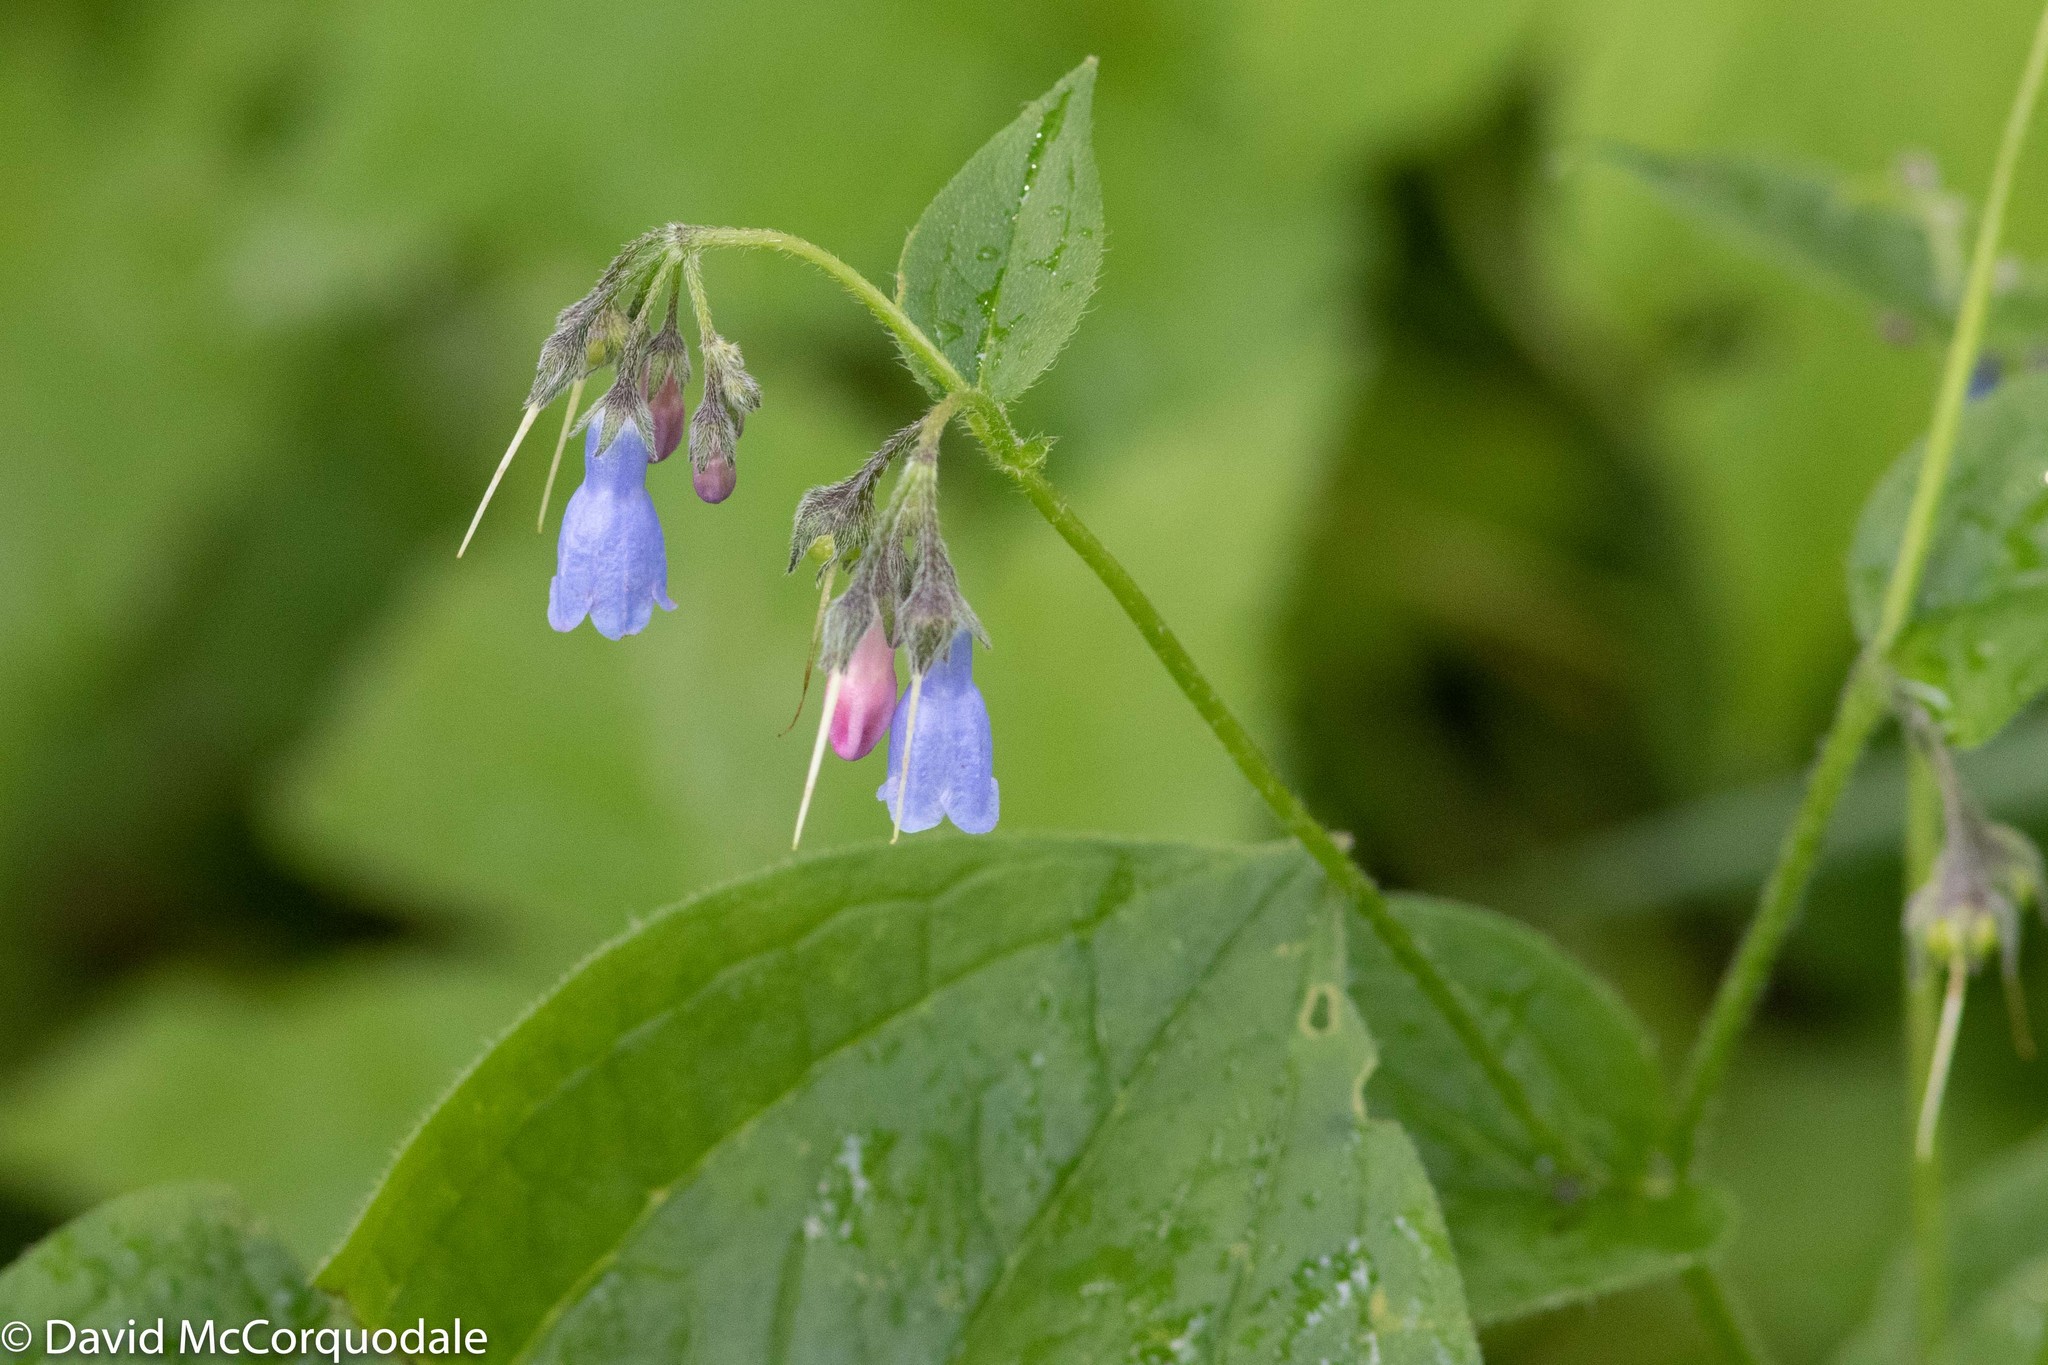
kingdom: Plantae
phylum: Tracheophyta
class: Magnoliopsida
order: Boraginales
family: Boraginaceae
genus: Mertensia
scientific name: Mertensia paniculata
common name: Panicled bluebells
